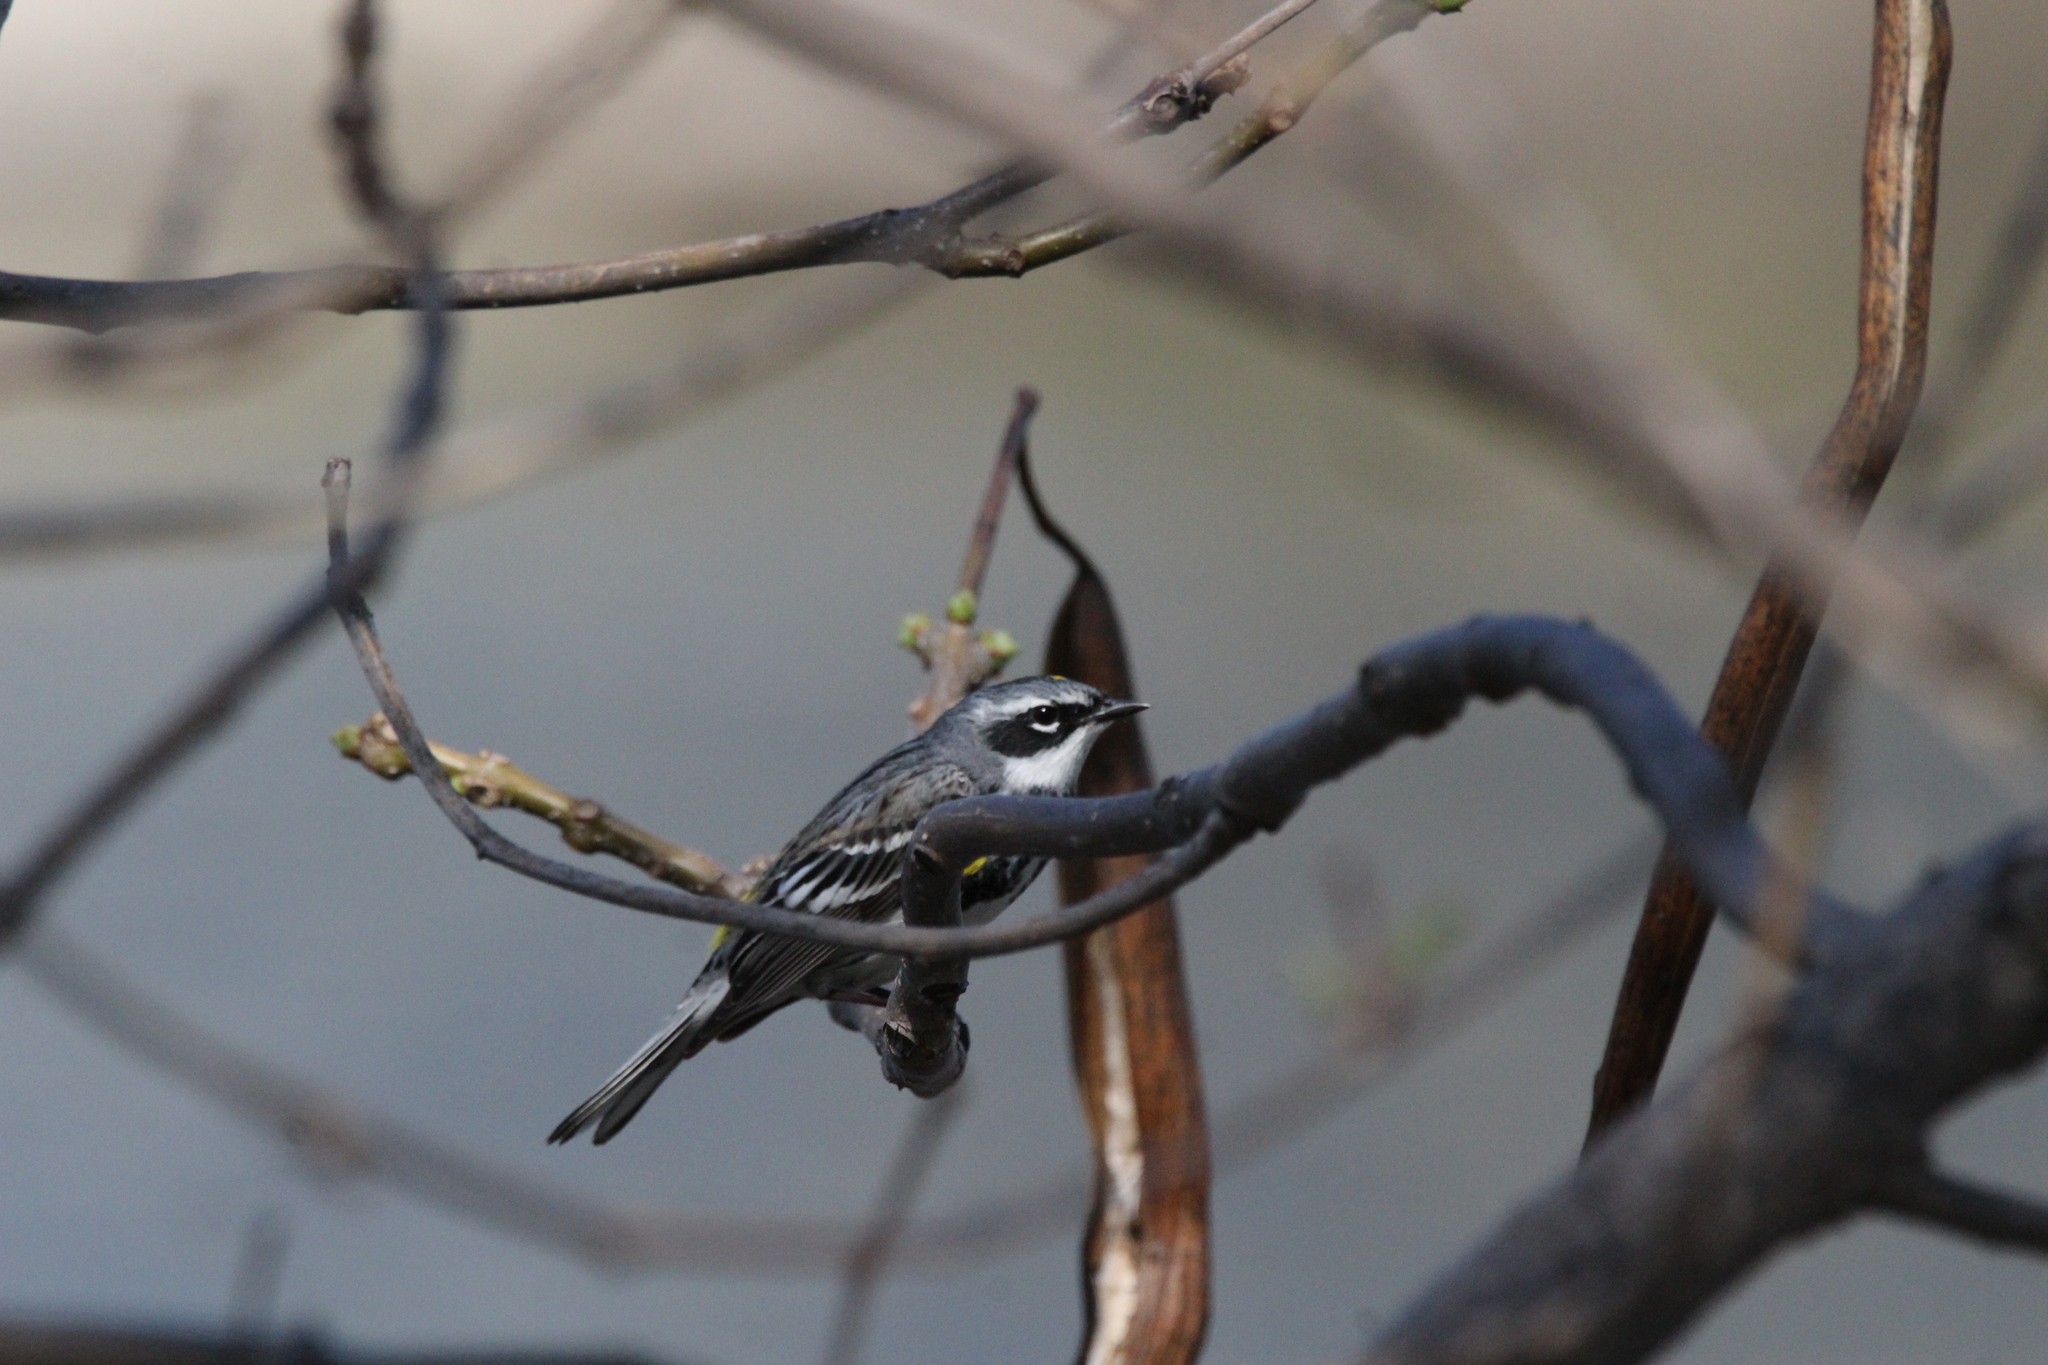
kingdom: Animalia
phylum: Chordata
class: Aves
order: Passeriformes
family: Parulidae
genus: Setophaga
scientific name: Setophaga coronata
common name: Myrtle warbler
